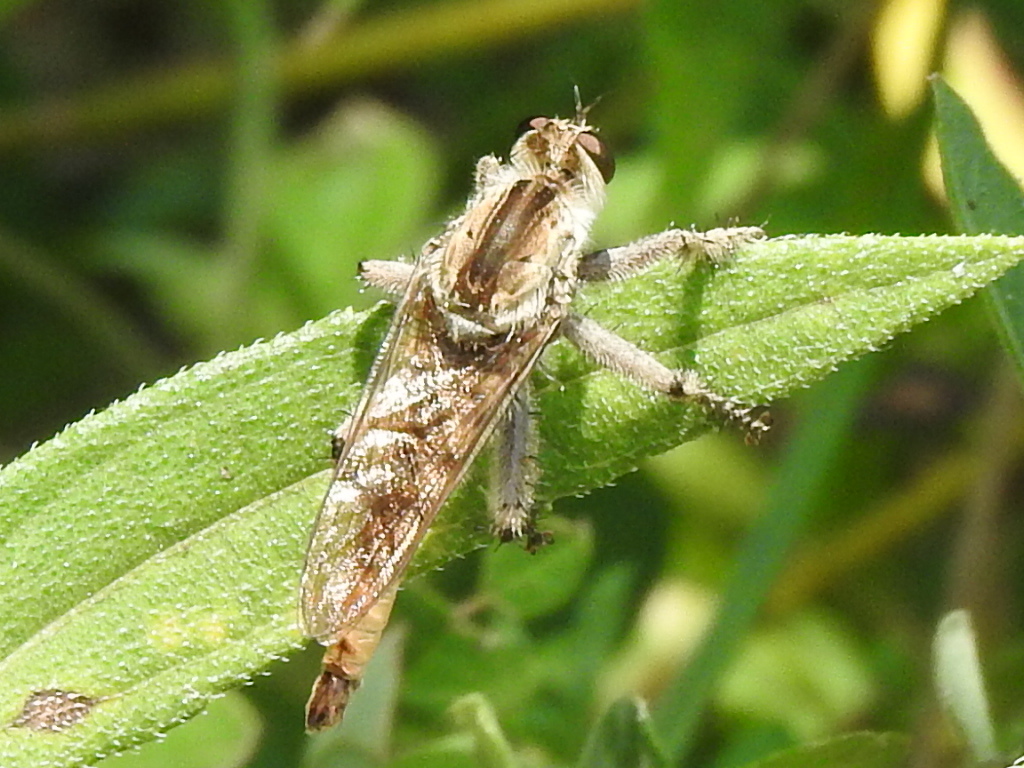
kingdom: Animalia
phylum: Arthropoda
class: Insecta
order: Diptera
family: Asilidae
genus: Triorla
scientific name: Triorla interrupta
